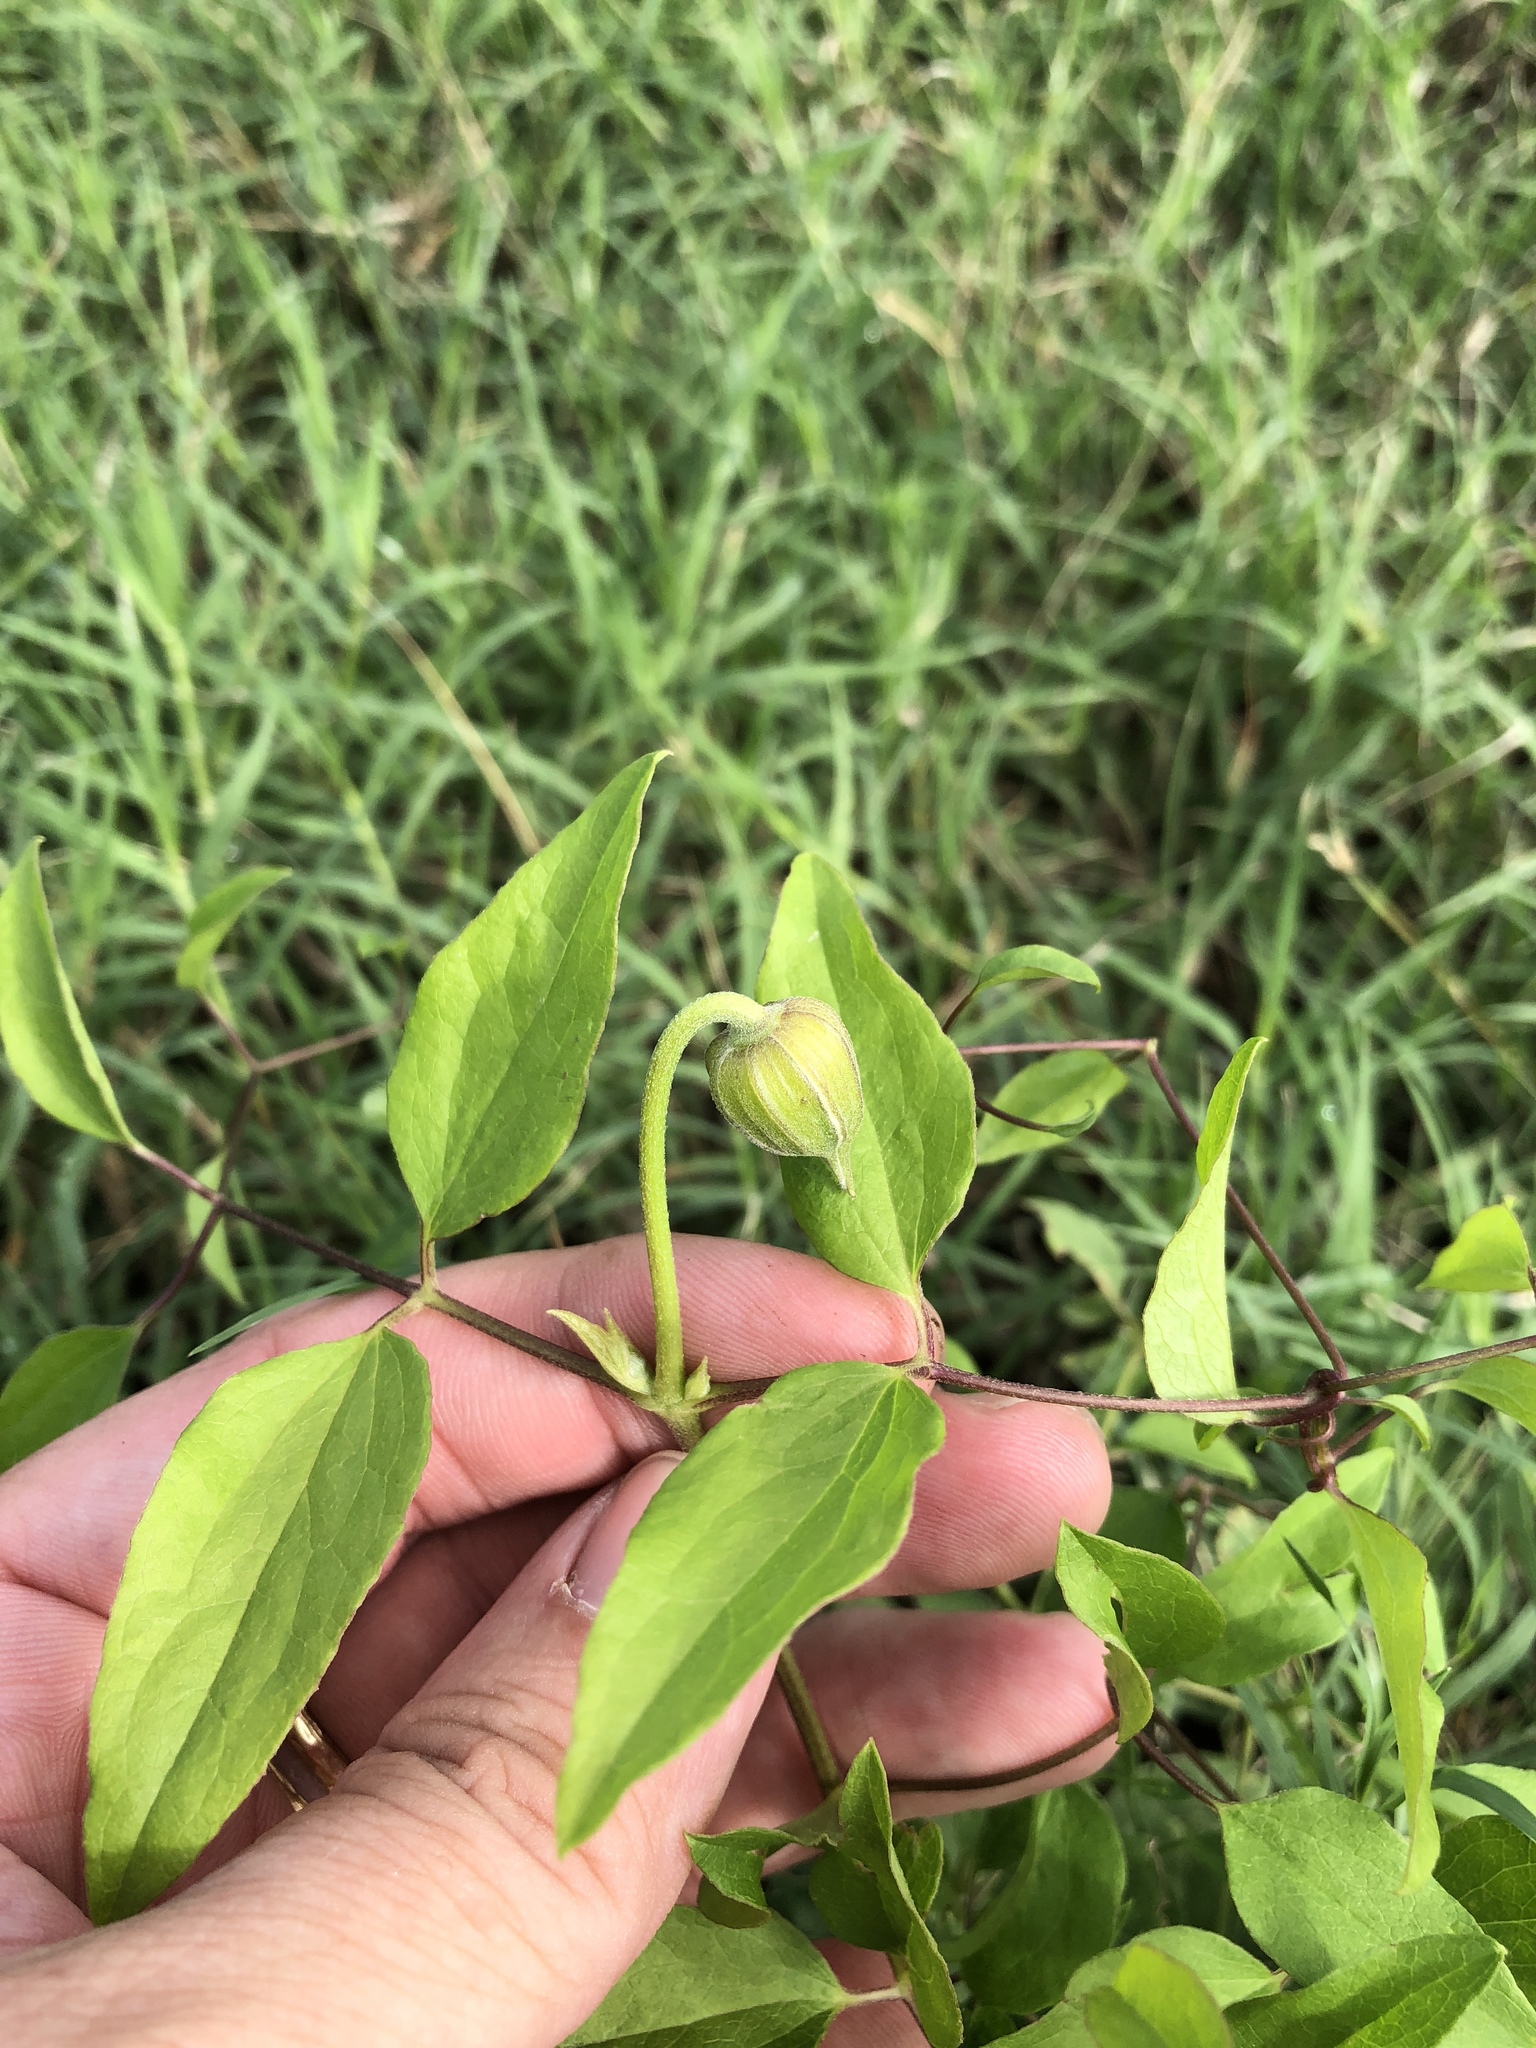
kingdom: Plantae
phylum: Tracheophyta
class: Magnoliopsida
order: Ranunculales
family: Ranunculaceae
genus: Clematis
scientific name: Clematis pitcheri
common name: Bellflower clematis
